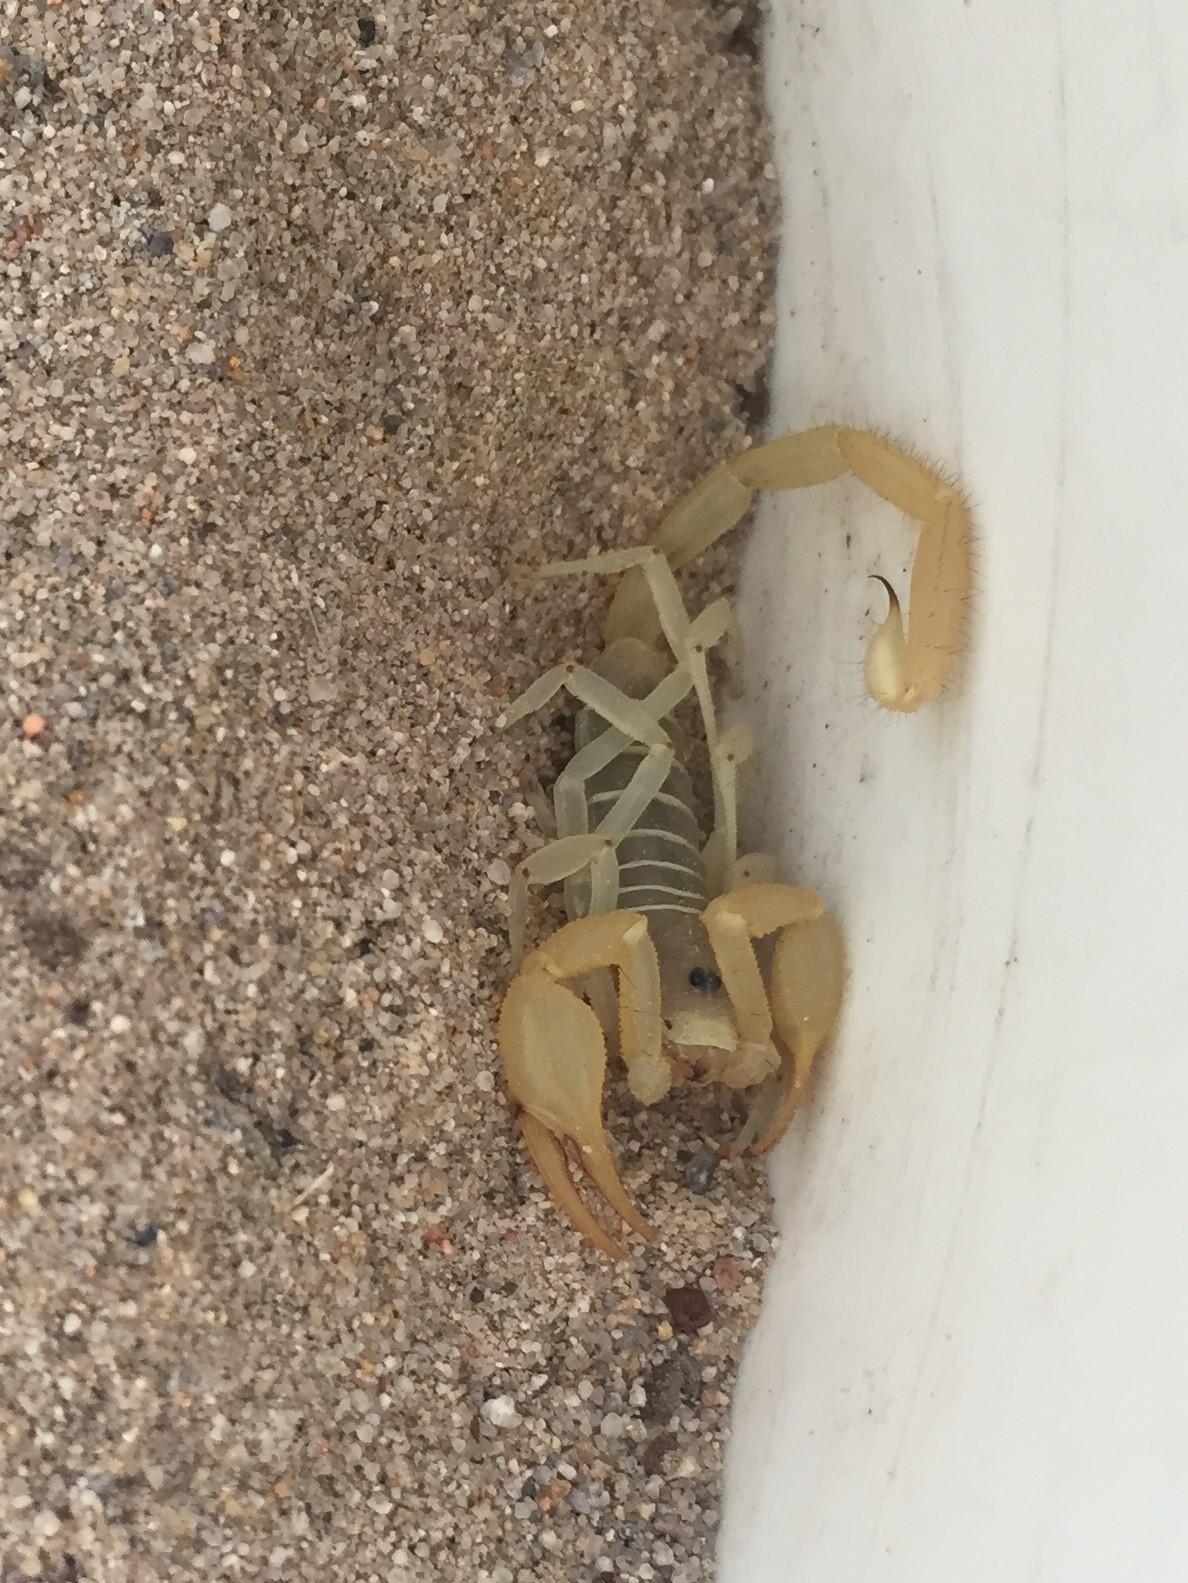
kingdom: Animalia
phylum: Arthropoda
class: Arachnida
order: Scorpiones
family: Vaejovidae
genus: Smeringurus
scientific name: Smeringurus mesaensis
